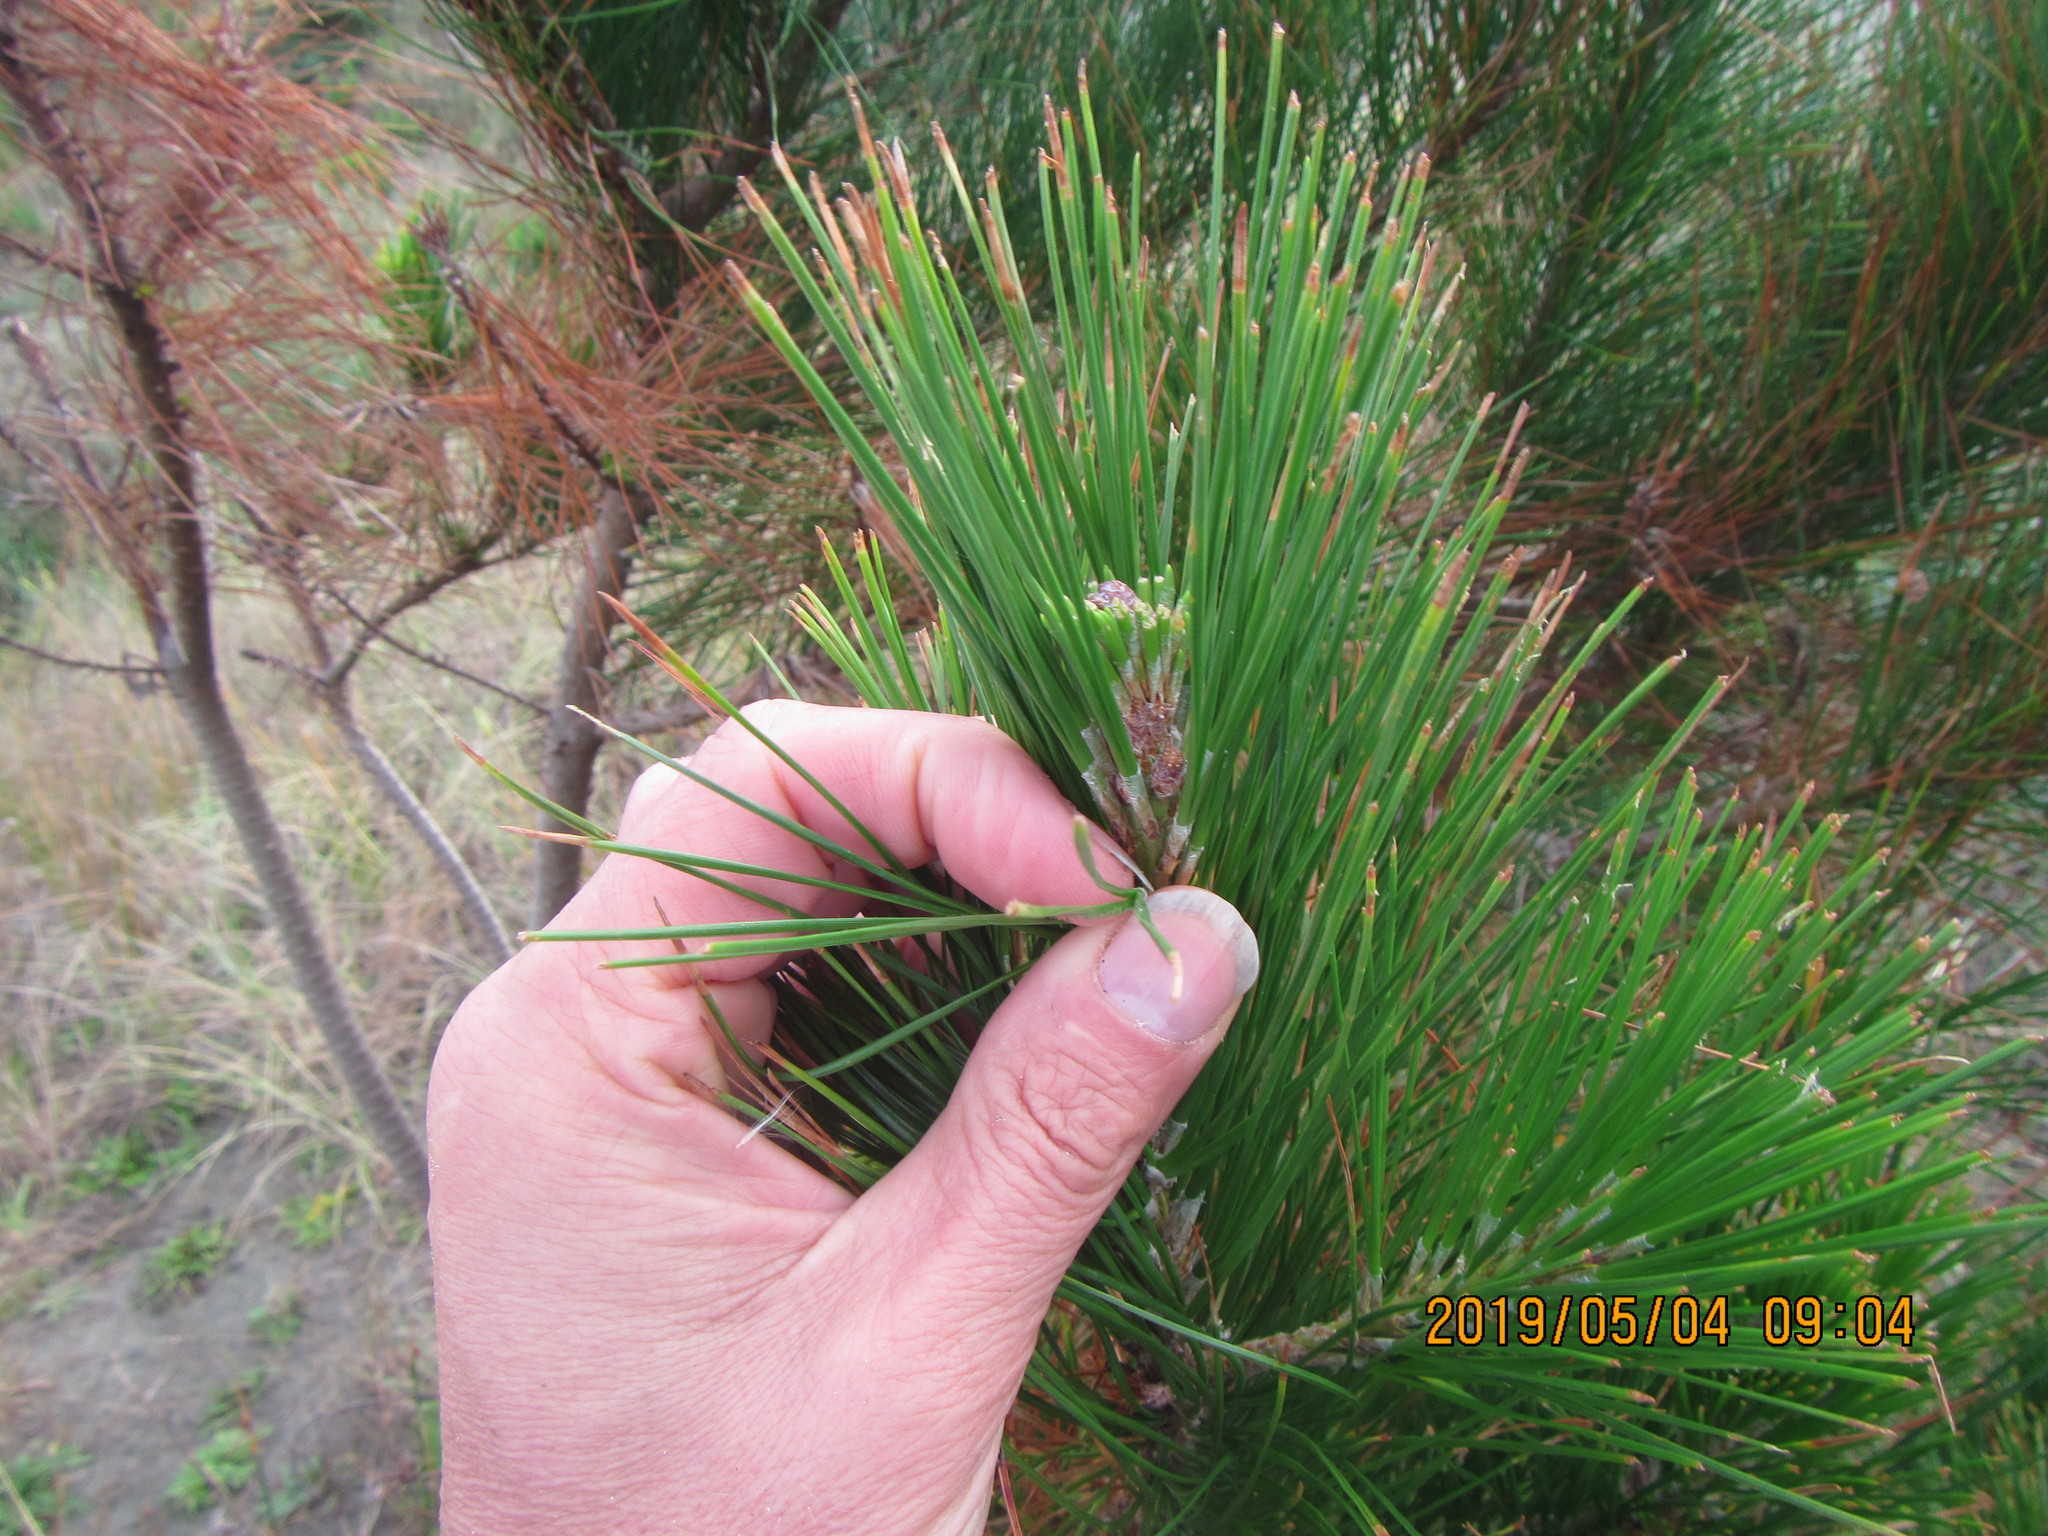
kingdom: Plantae
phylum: Tracheophyta
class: Pinopsida
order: Pinales
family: Pinaceae
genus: Pinus
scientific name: Pinus radiata
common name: Monterey pine
